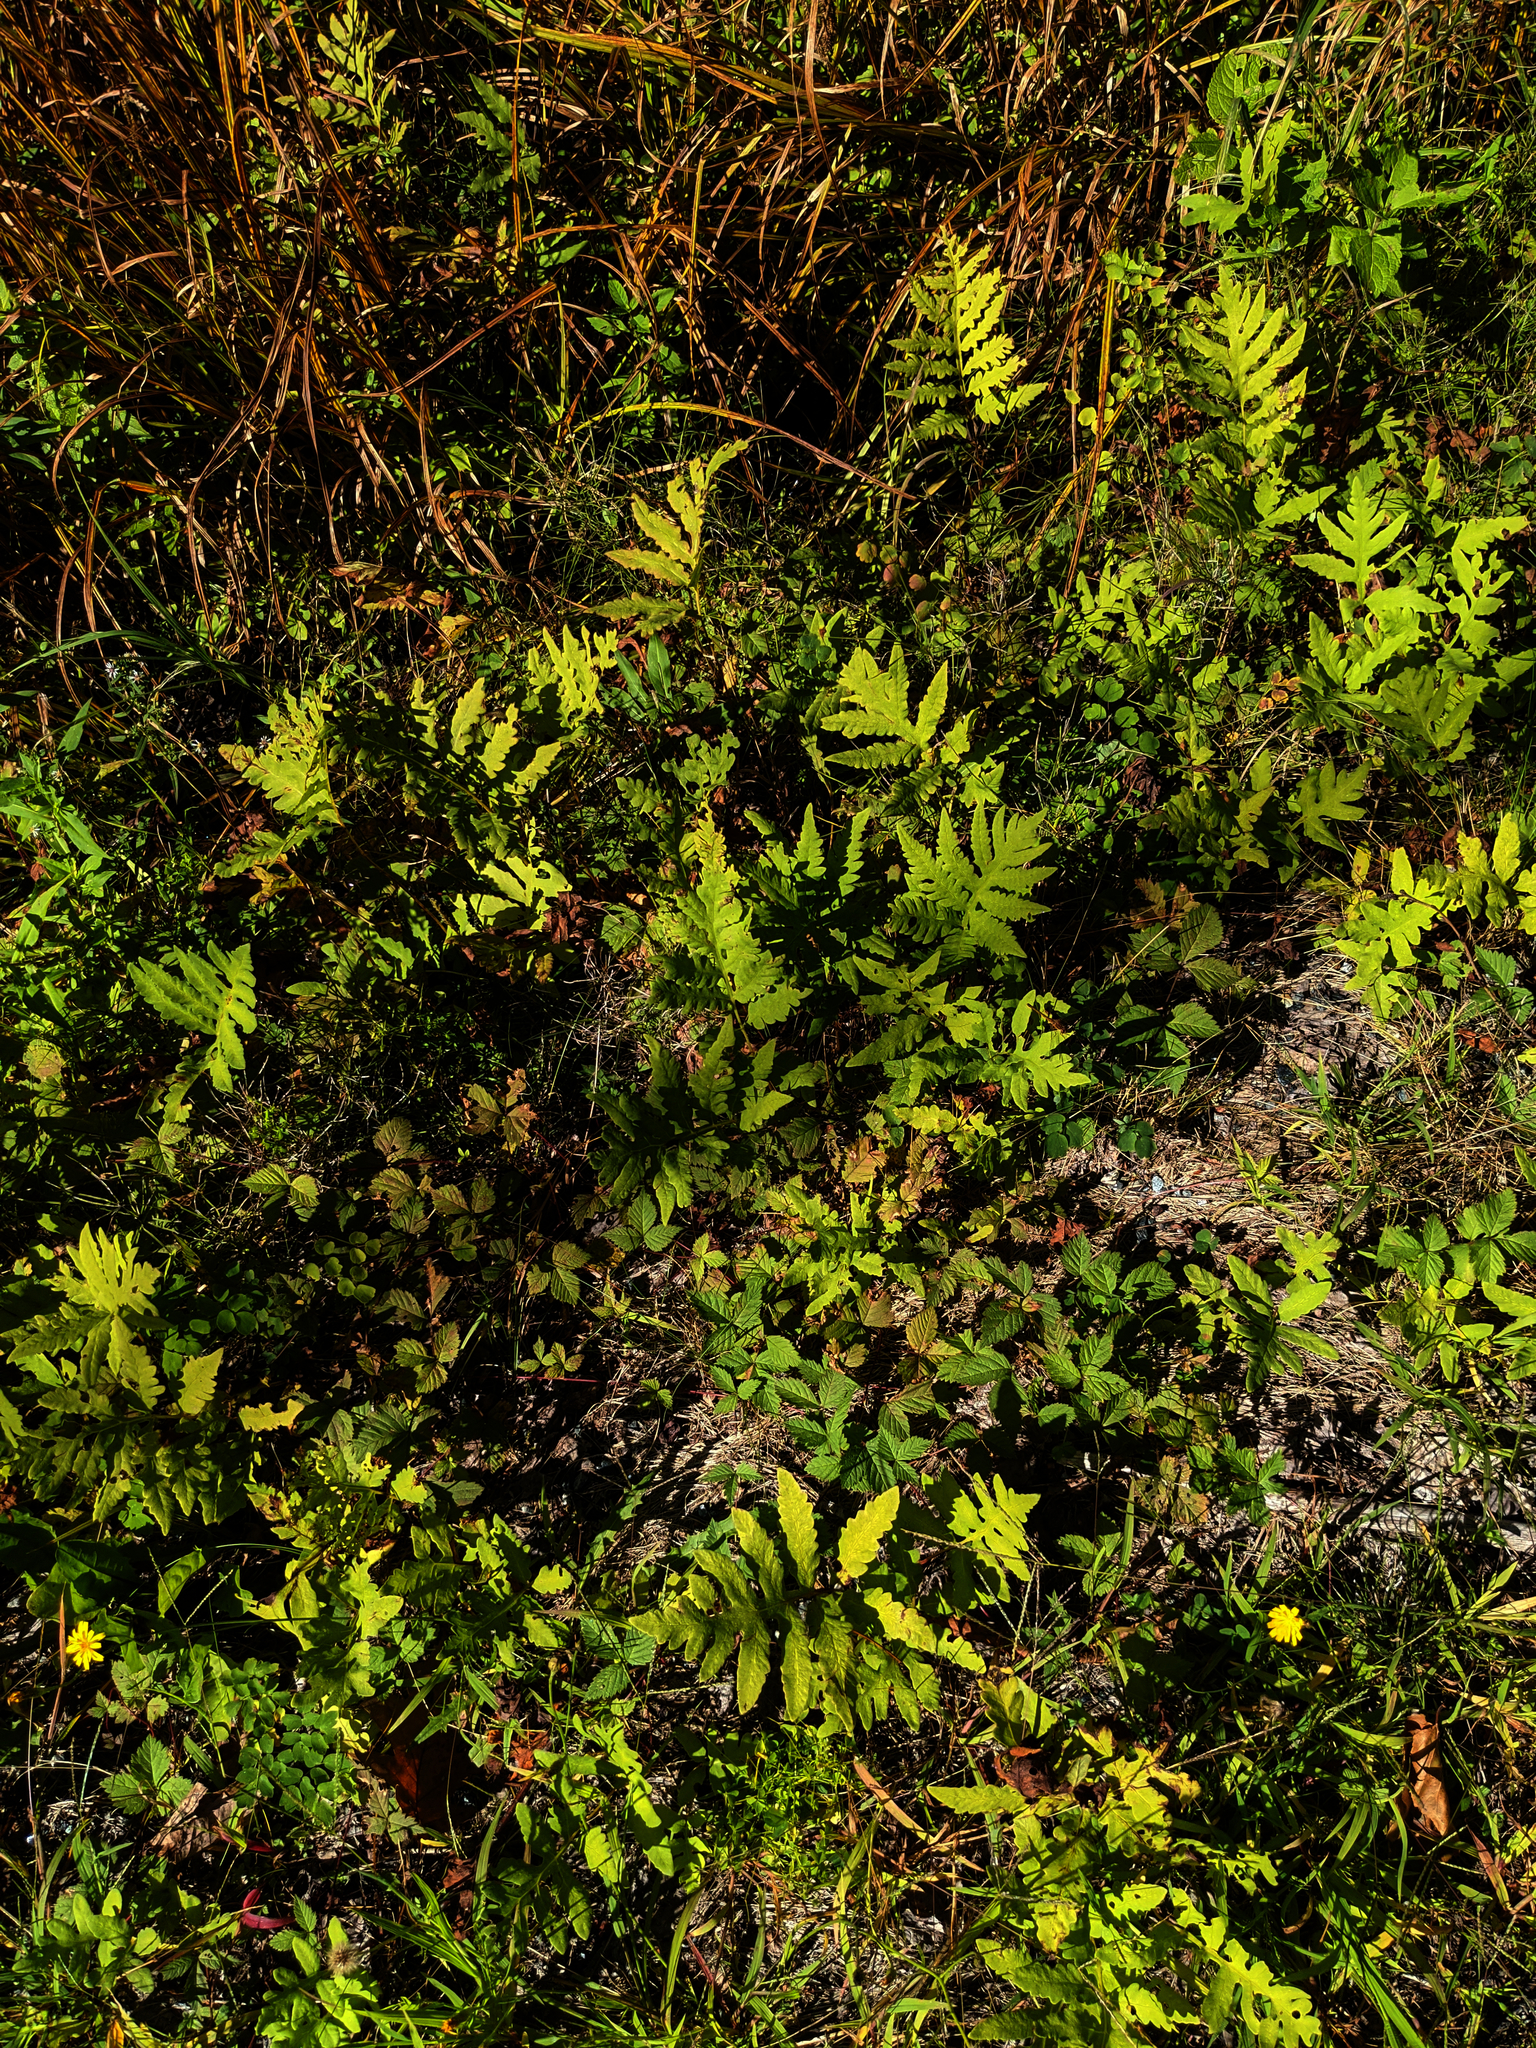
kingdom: Plantae
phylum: Tracheophyta
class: Polypodiopsida
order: Polypodiales
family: Onocleaceae
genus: Onoclea
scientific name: Onoclea sensibilis
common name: Sensitive fern
